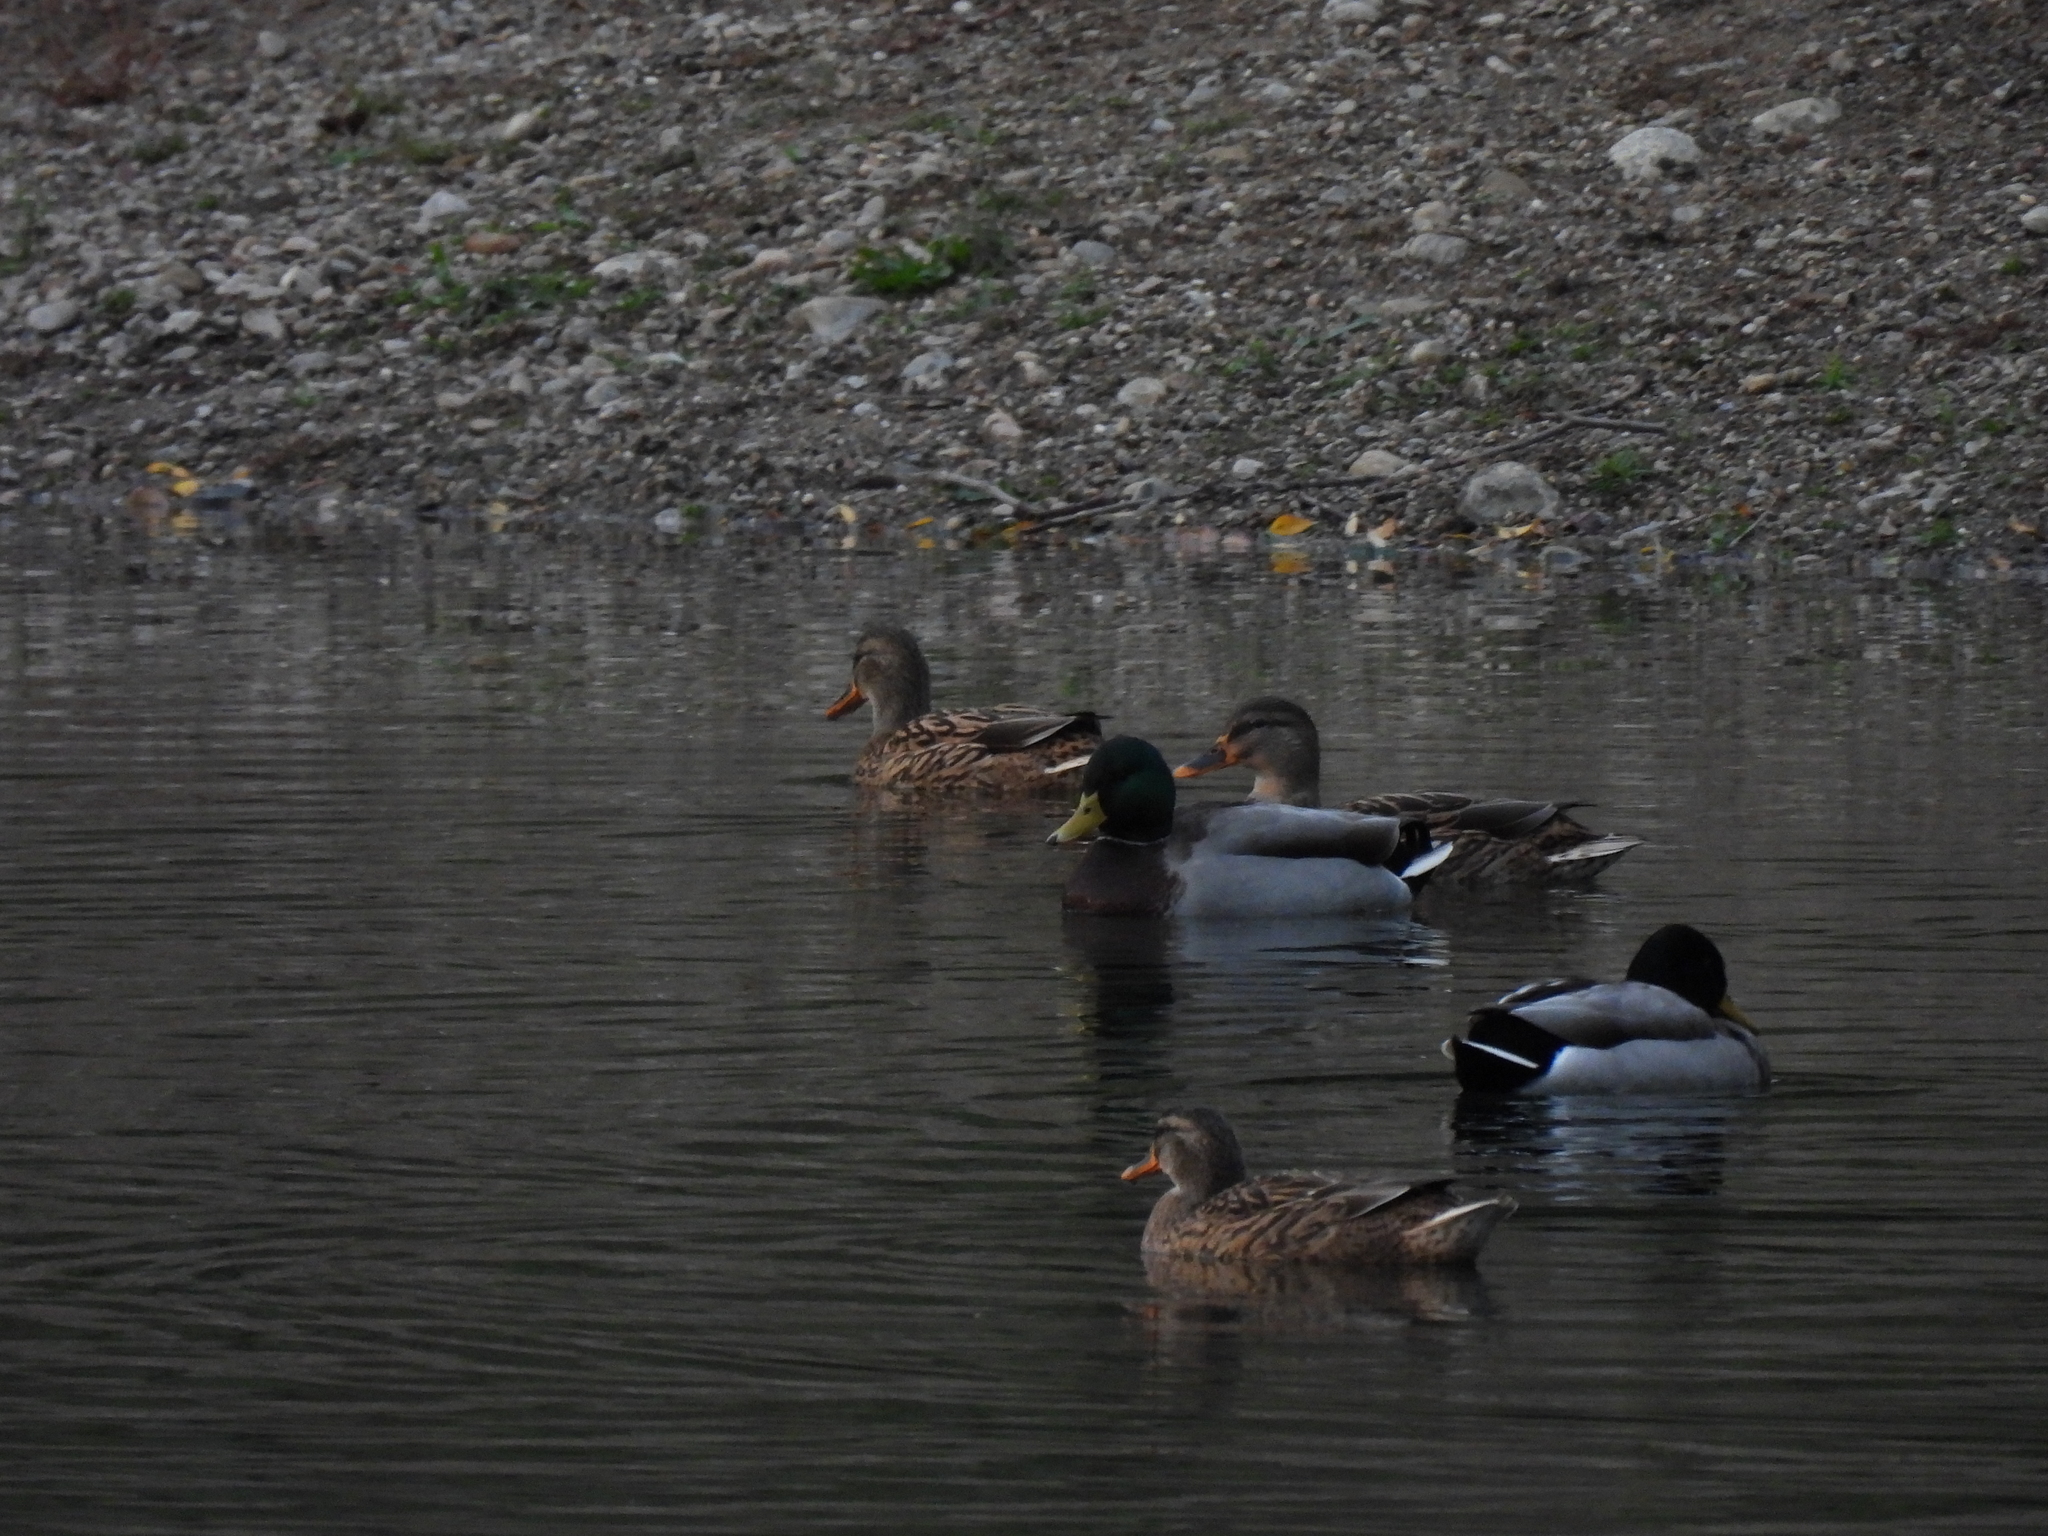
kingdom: Animalia
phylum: Chordata
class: Aves
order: Anseriformes
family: Anatidae
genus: Anas
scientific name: Anas platyrhynchos
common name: Mallard
